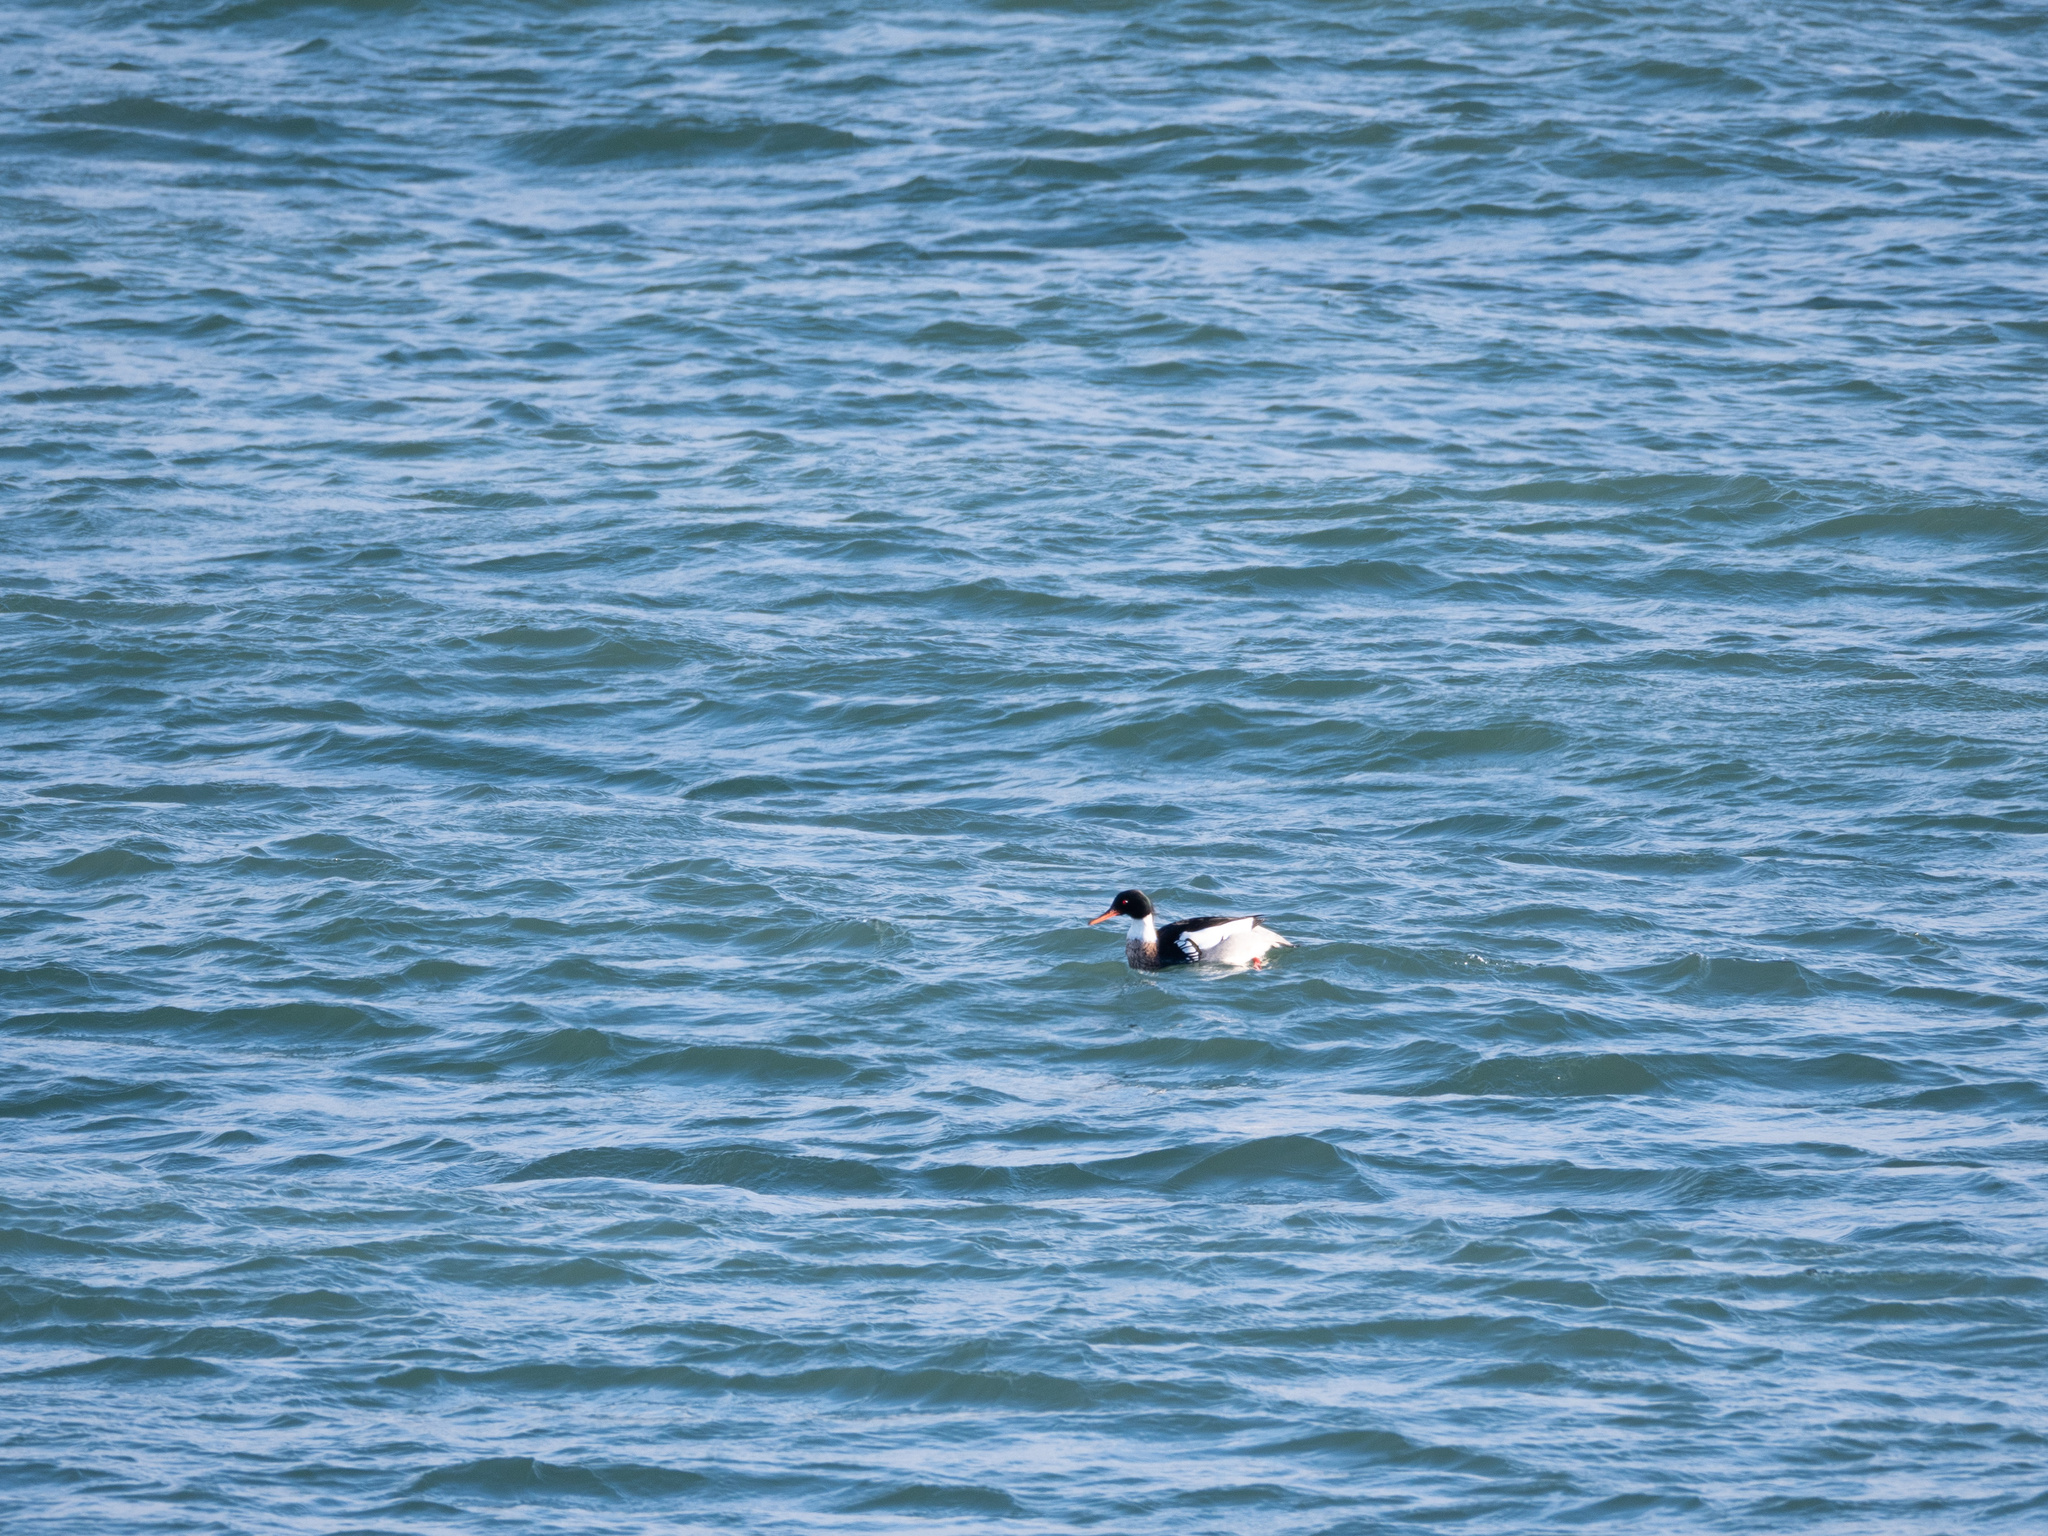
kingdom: Animalia
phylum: Chordata
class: Aves
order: Anseriformes
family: Anatidae
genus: Mergus
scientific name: Mergus serrator
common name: Red-breasted merganser
